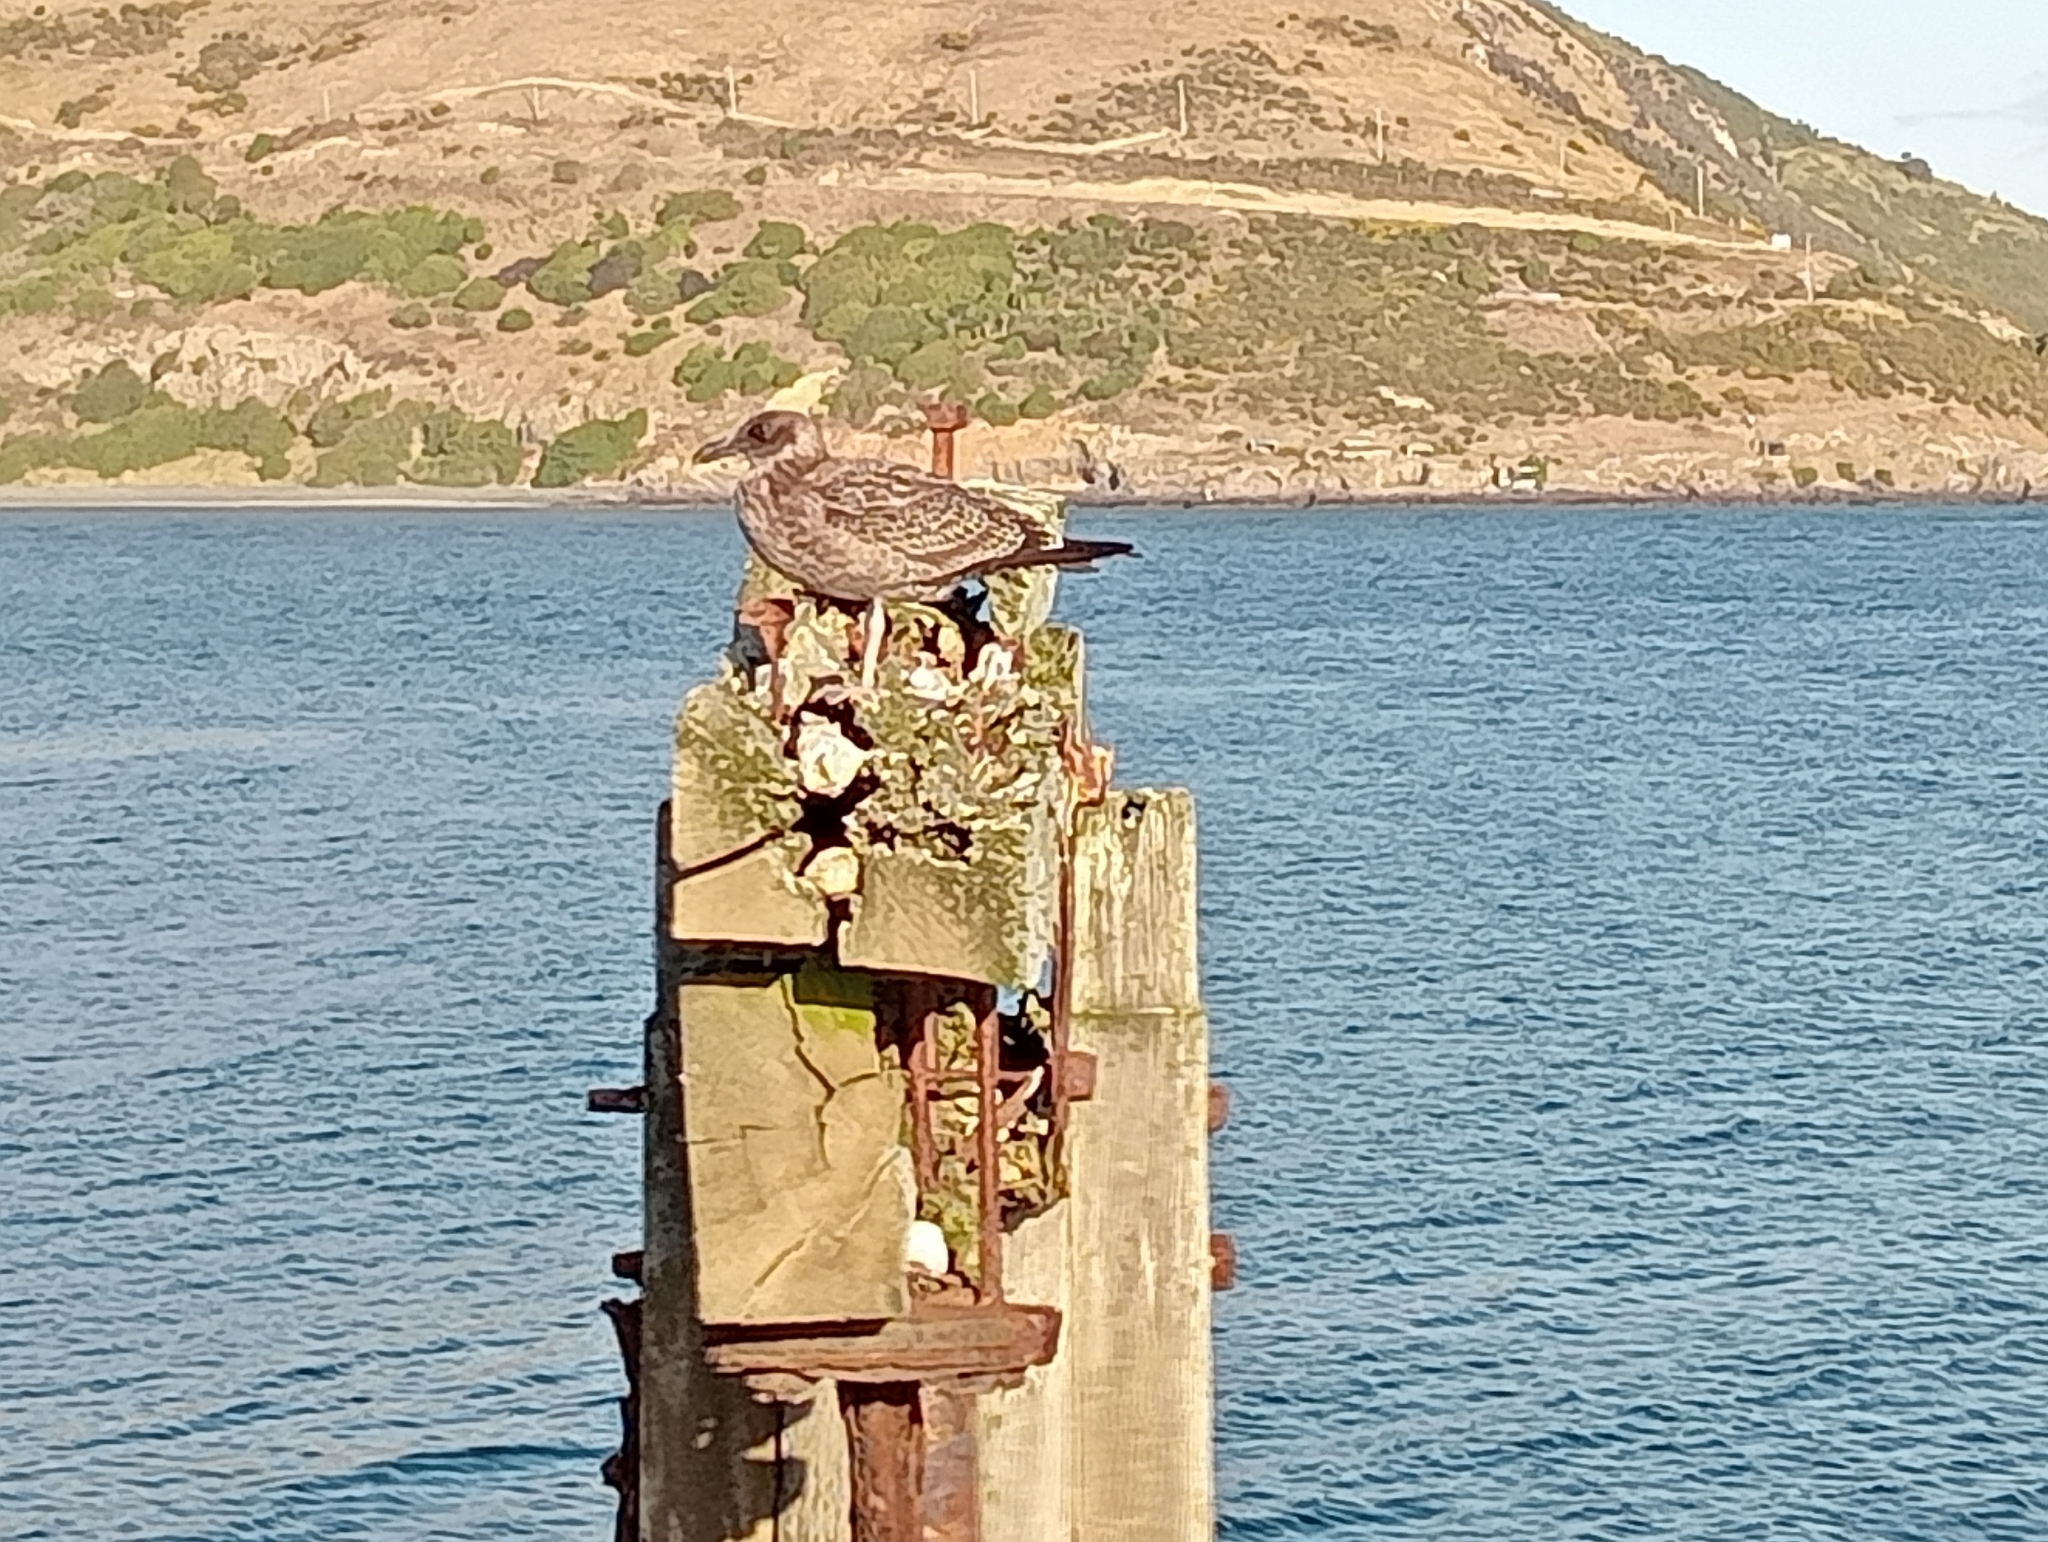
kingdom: Animalia
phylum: Chordata
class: Aves
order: Charadriiformes
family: Laridae
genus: Larus
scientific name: Larus dominicanus
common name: Kelp gull
